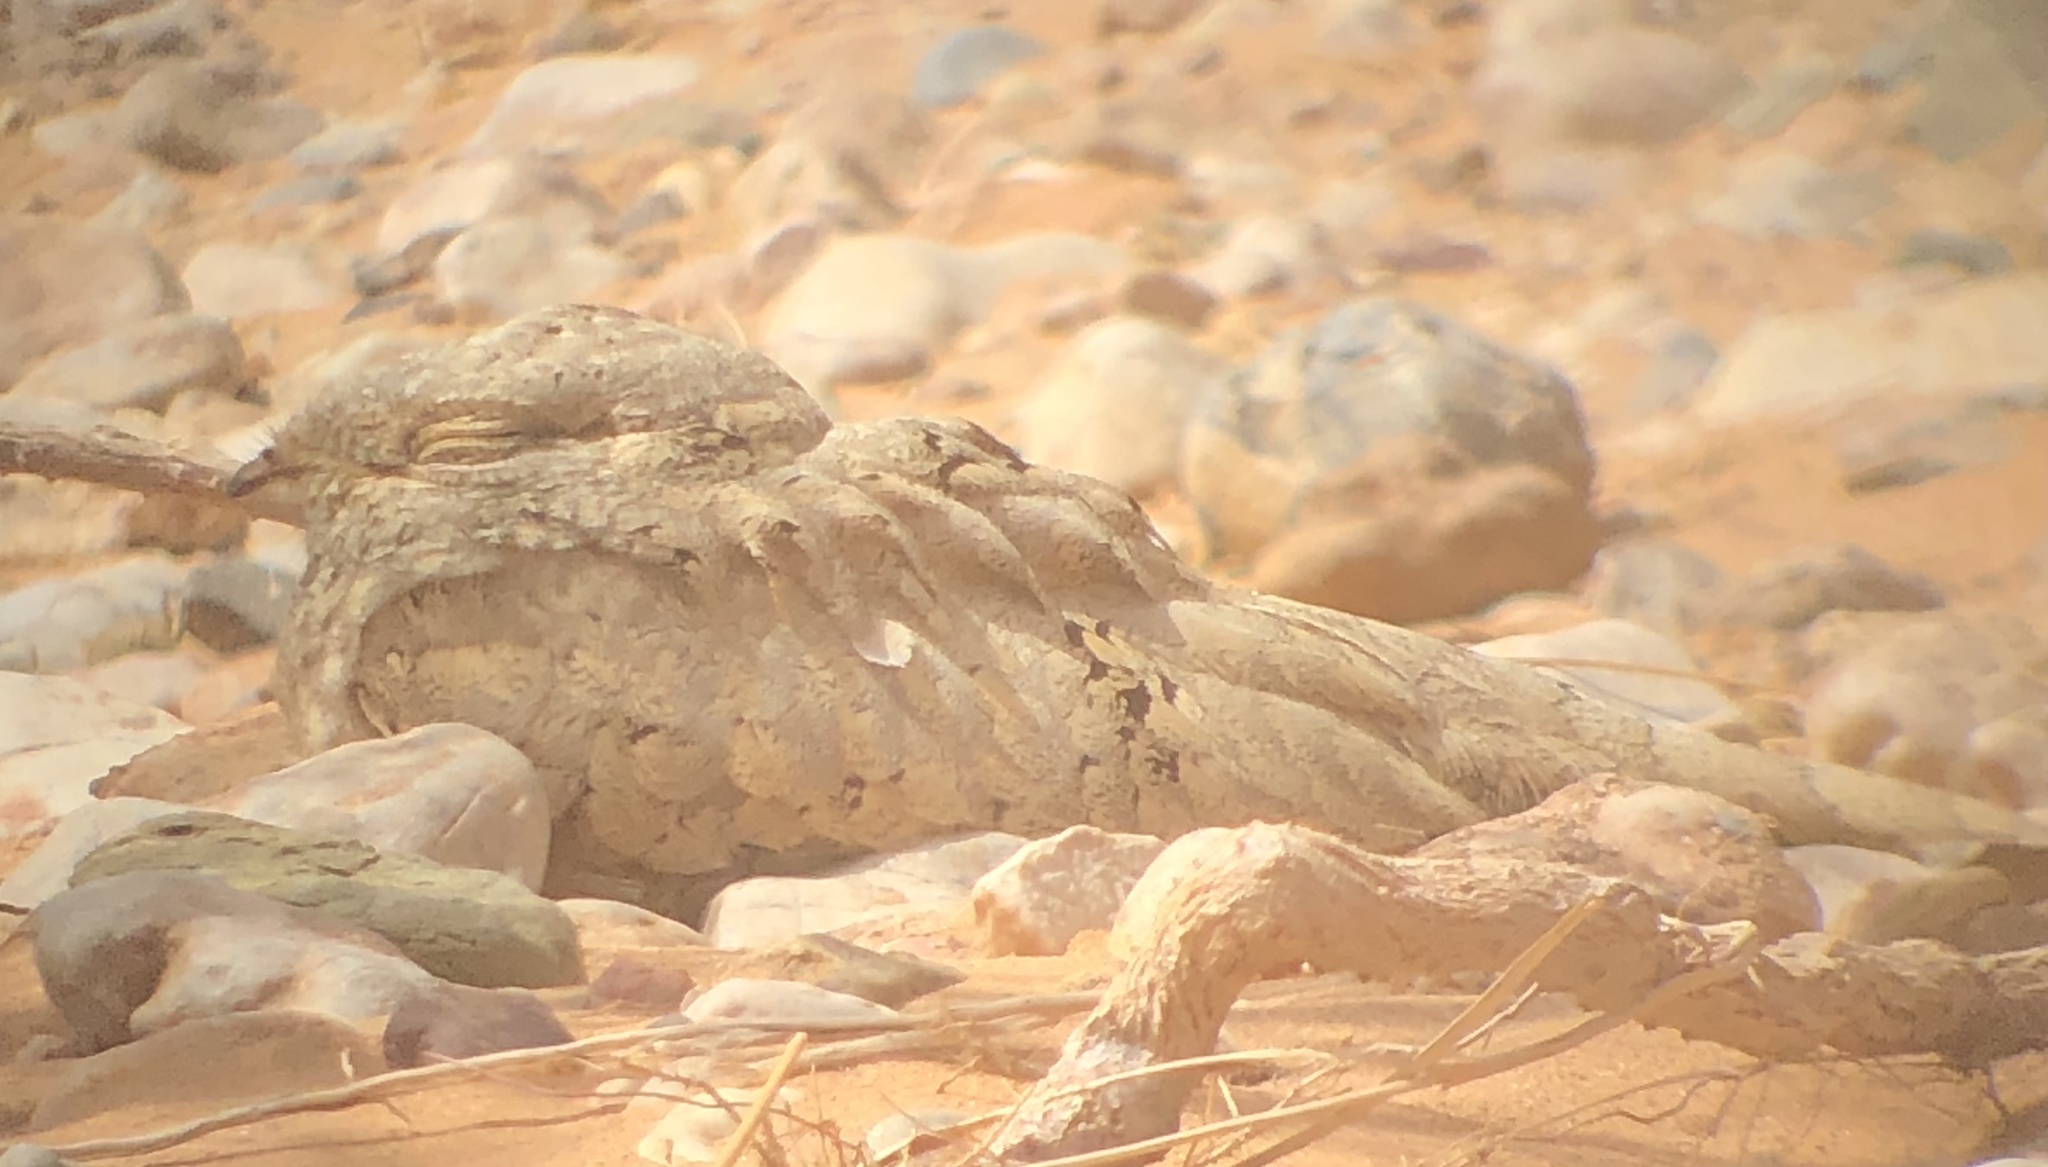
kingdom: Animalia
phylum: Chordata
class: Aves
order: Caprimulgiformes
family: Caprimulgidae
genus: Caprimulgus
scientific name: Caprimulgus aegyptius
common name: Egyptian nightjar
